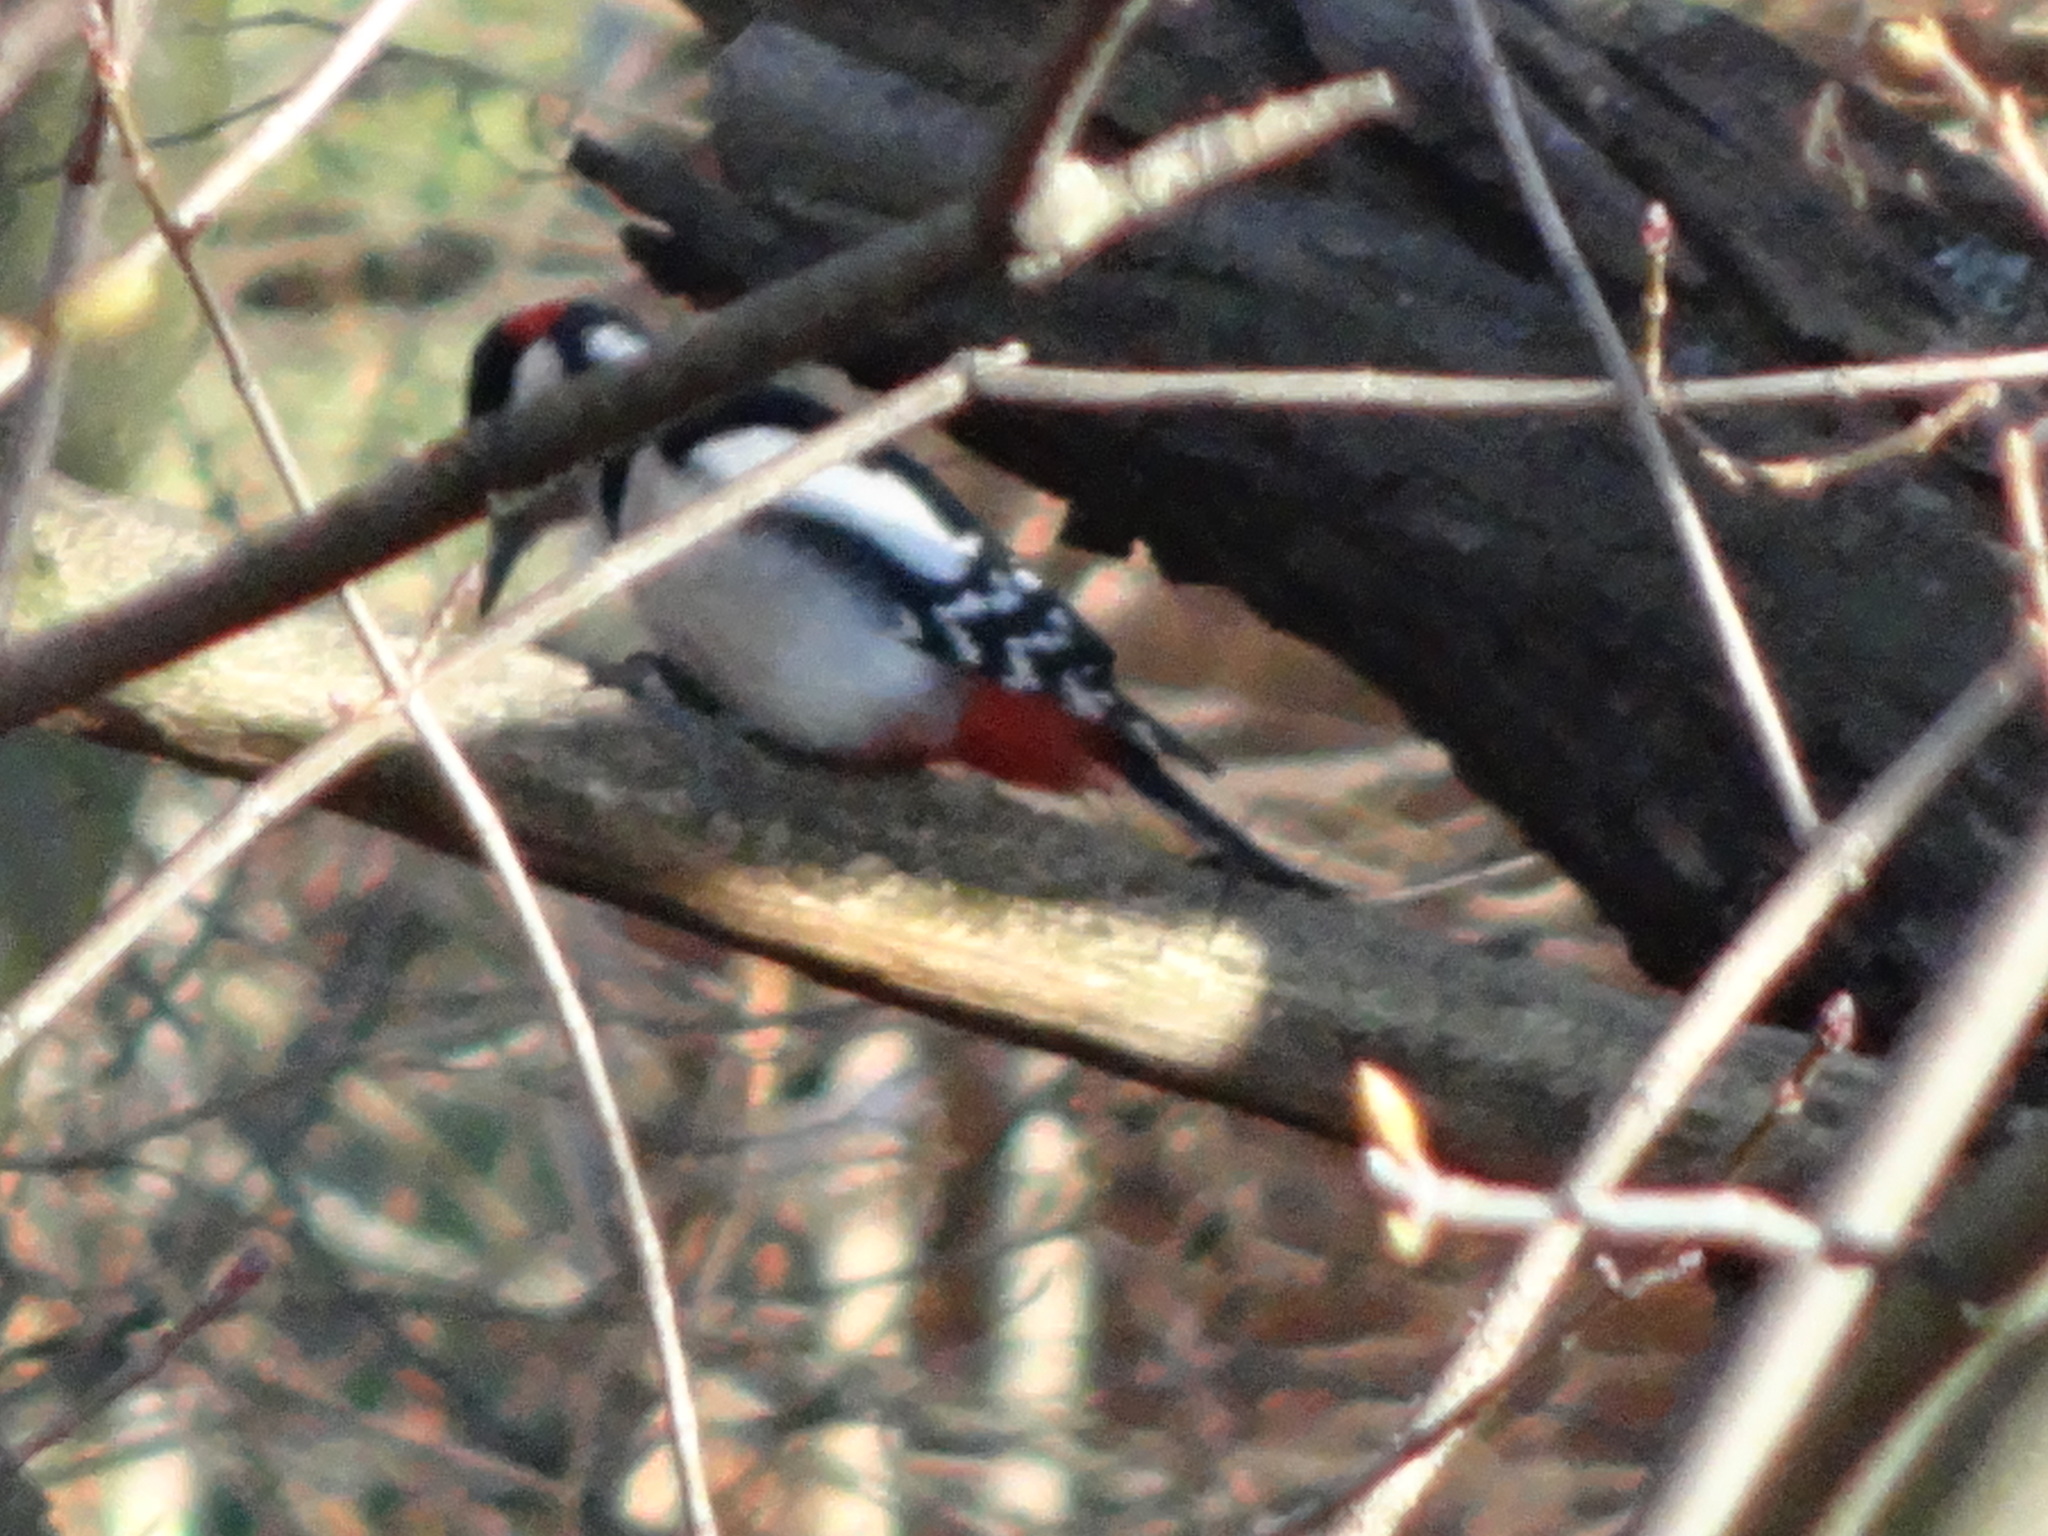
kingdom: Animalia
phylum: Chordata
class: Aves
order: Piciformes
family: Picidae
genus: Dendrocopos
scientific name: Dendrocopos major
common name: Great spotted woodpecker
